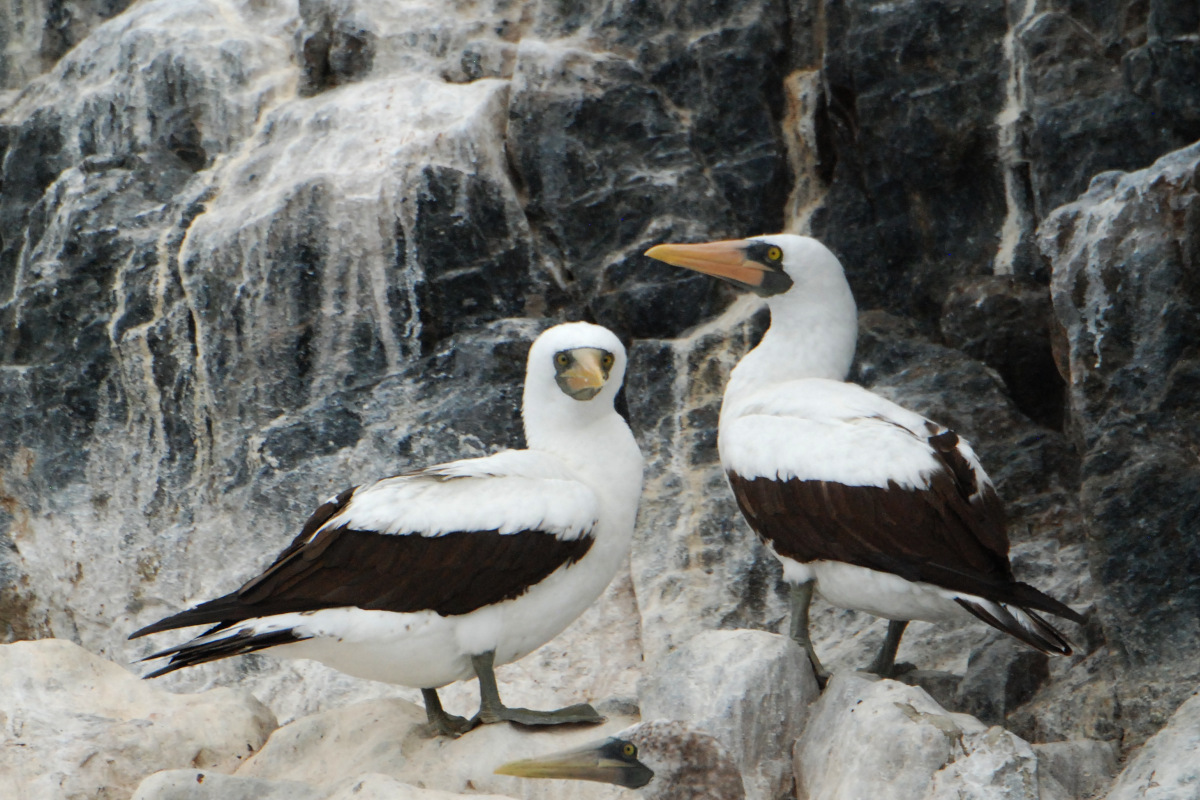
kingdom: Animalia
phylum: Chordata
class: Aves
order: Suliformes
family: Sulidae
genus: Sula
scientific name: Sula granti
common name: Nazca booby
